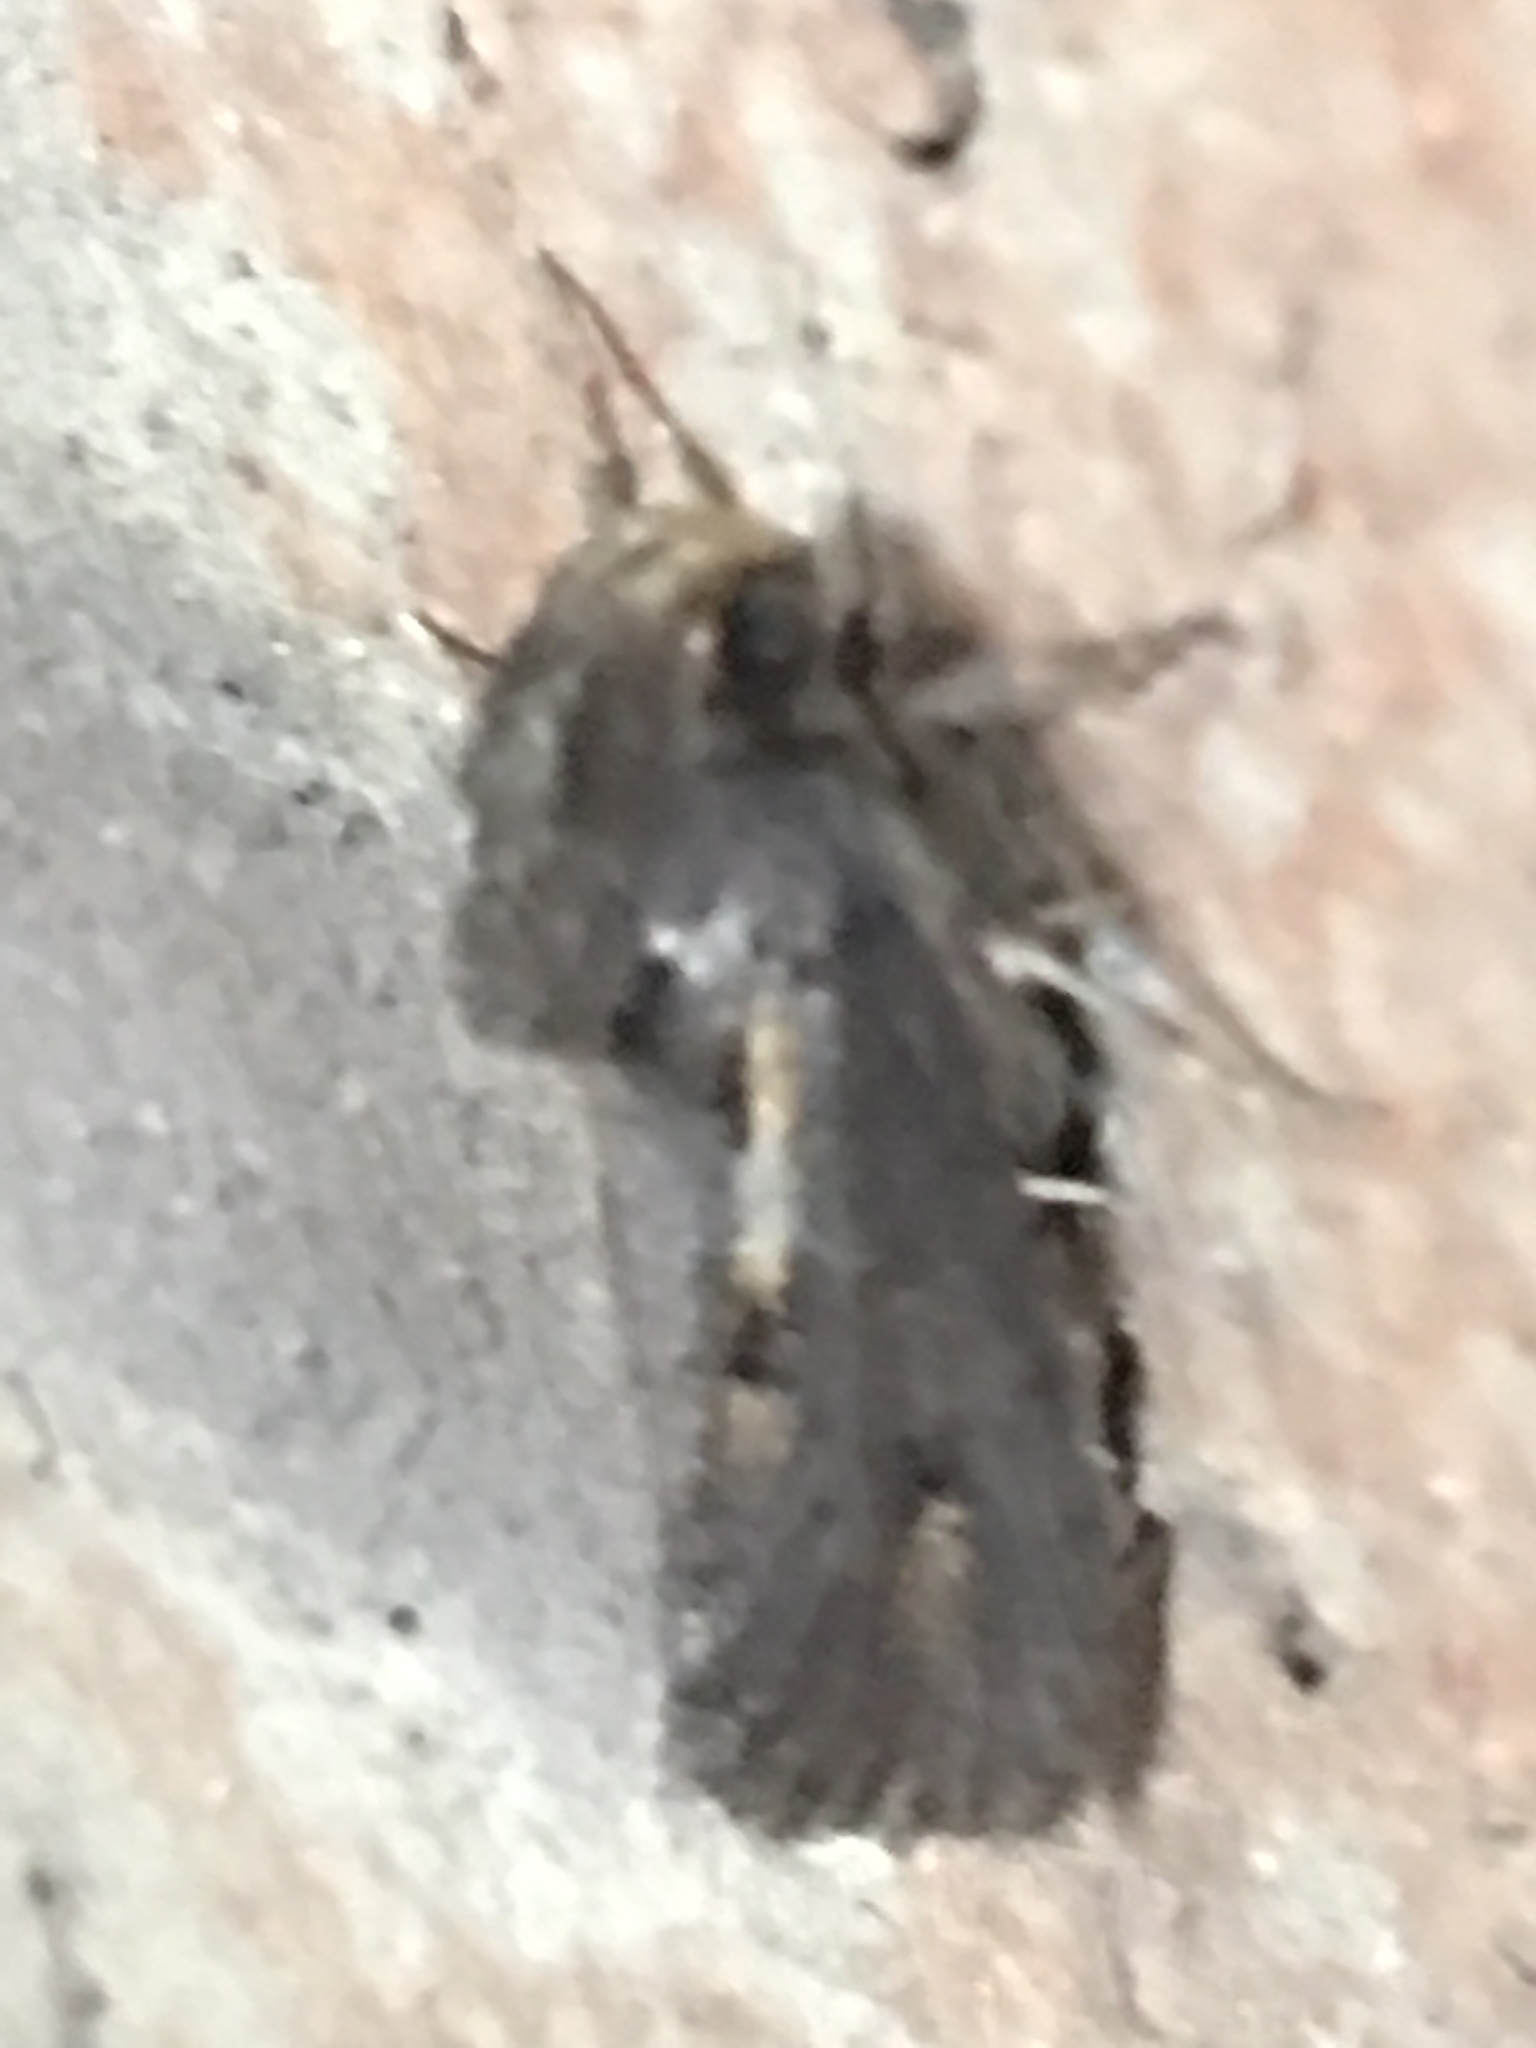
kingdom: Animalia
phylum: Arthropoda
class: Insecta
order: Lepidoptera
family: Tineidae
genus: Acrolophus
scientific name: Acrolophus popeanella
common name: Clemens' grass tubeworm moth
